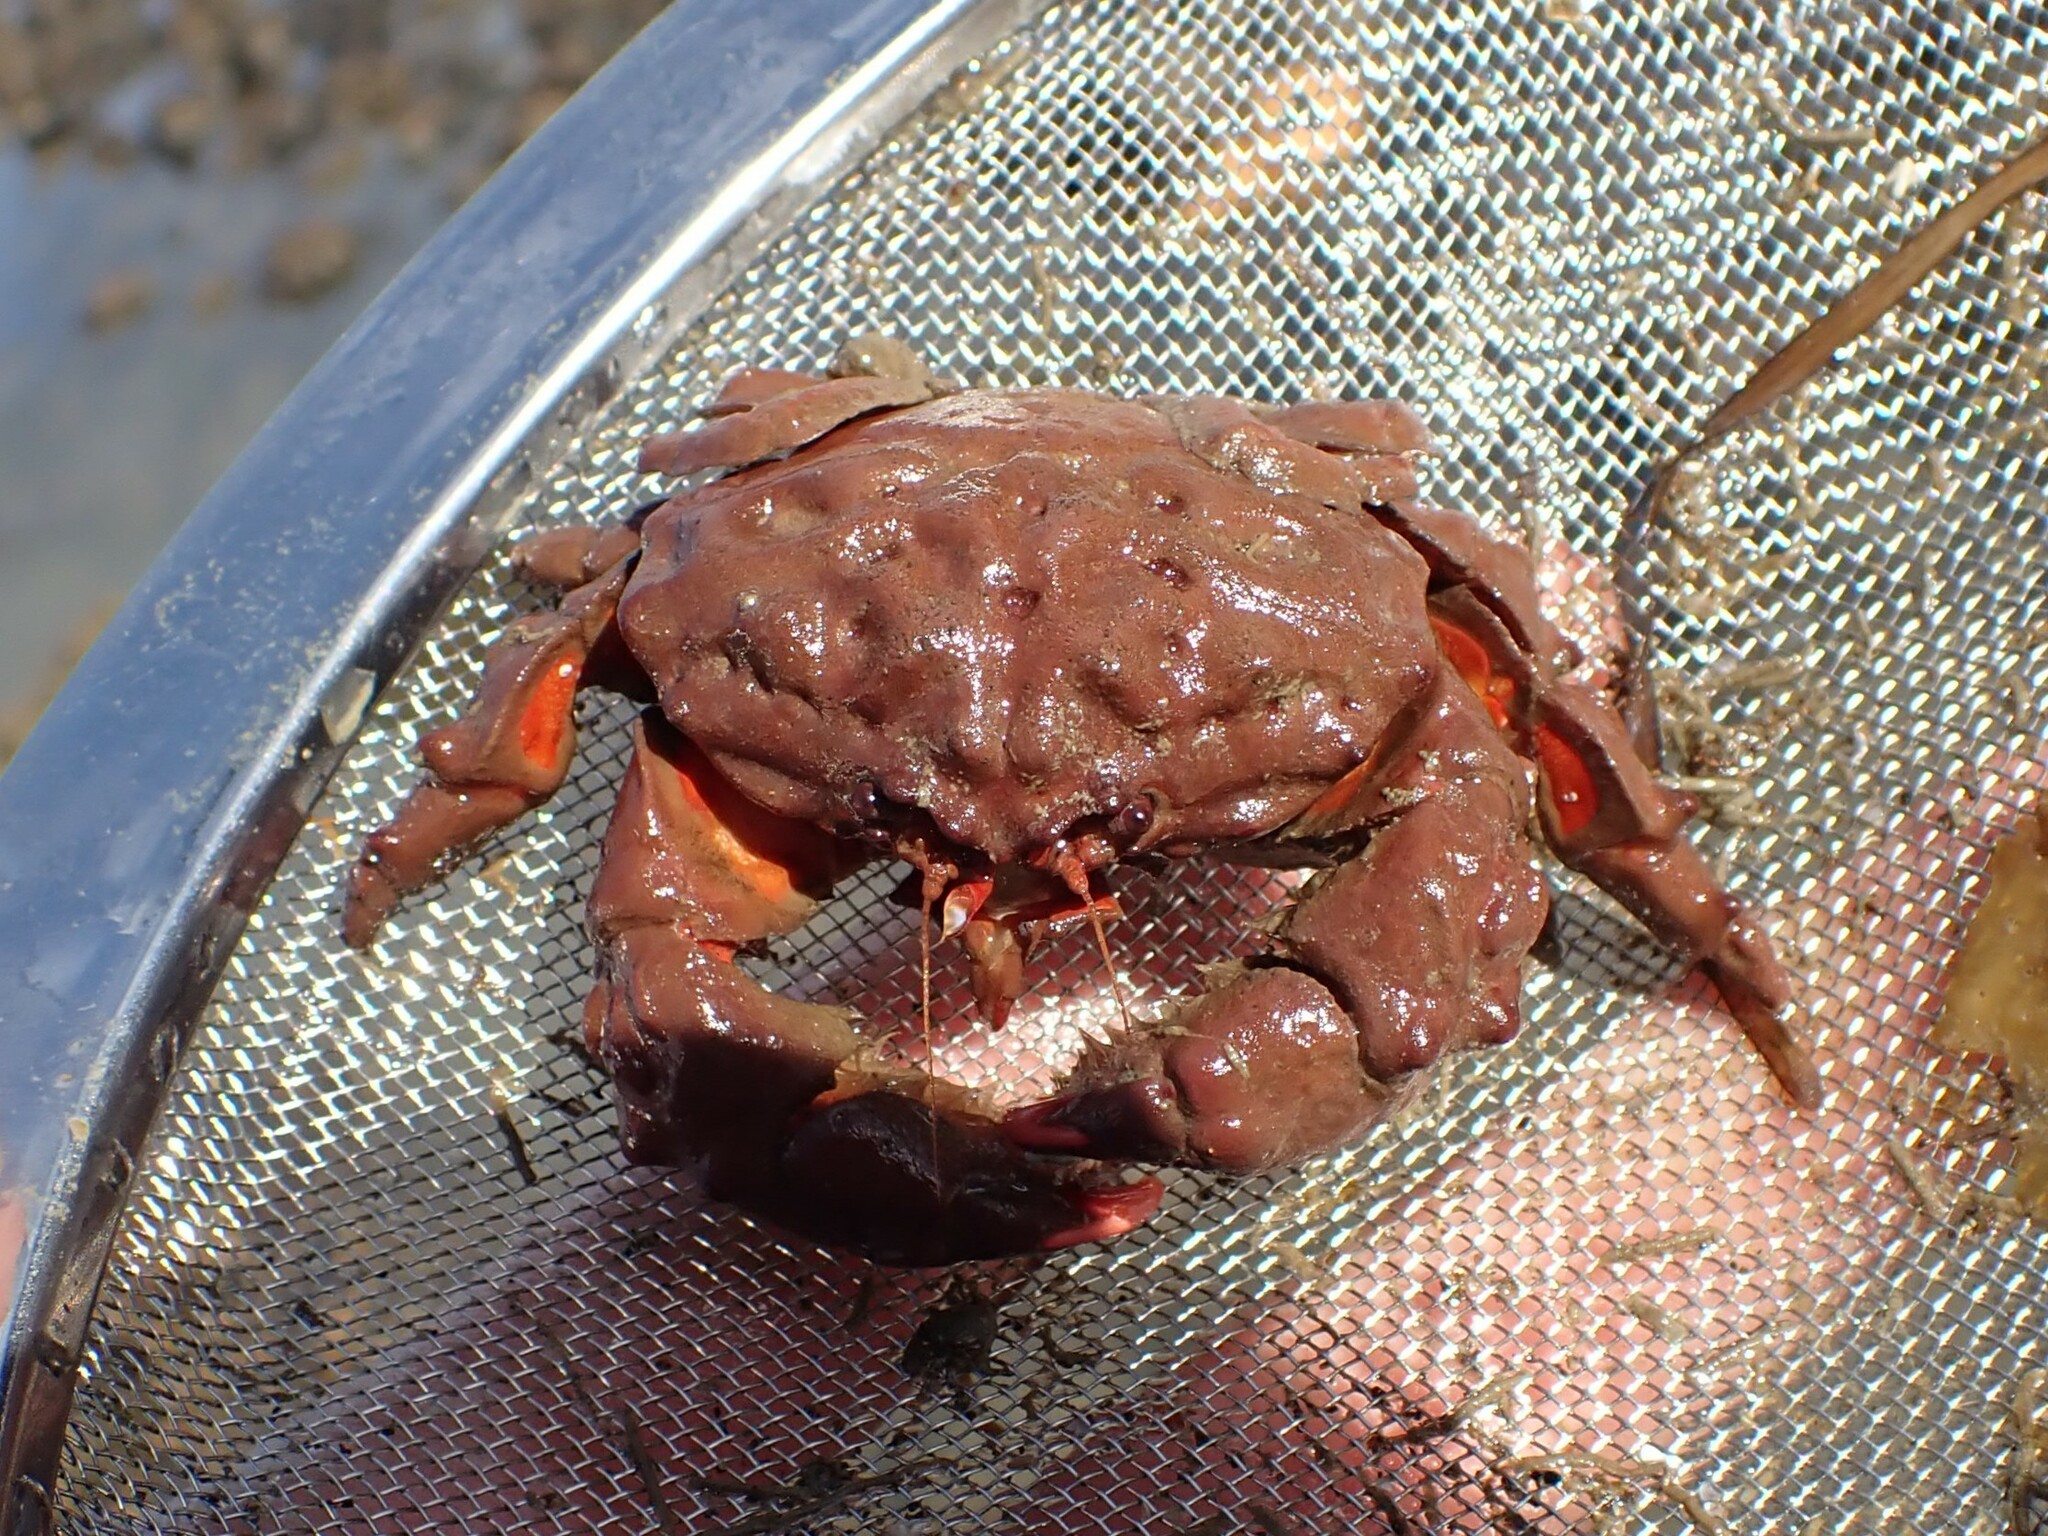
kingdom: Animalia
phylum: Arthropoda
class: Malacostraca
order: Decapoda
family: Dromiidae
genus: Metadromia
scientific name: Metadromia wilsoni
